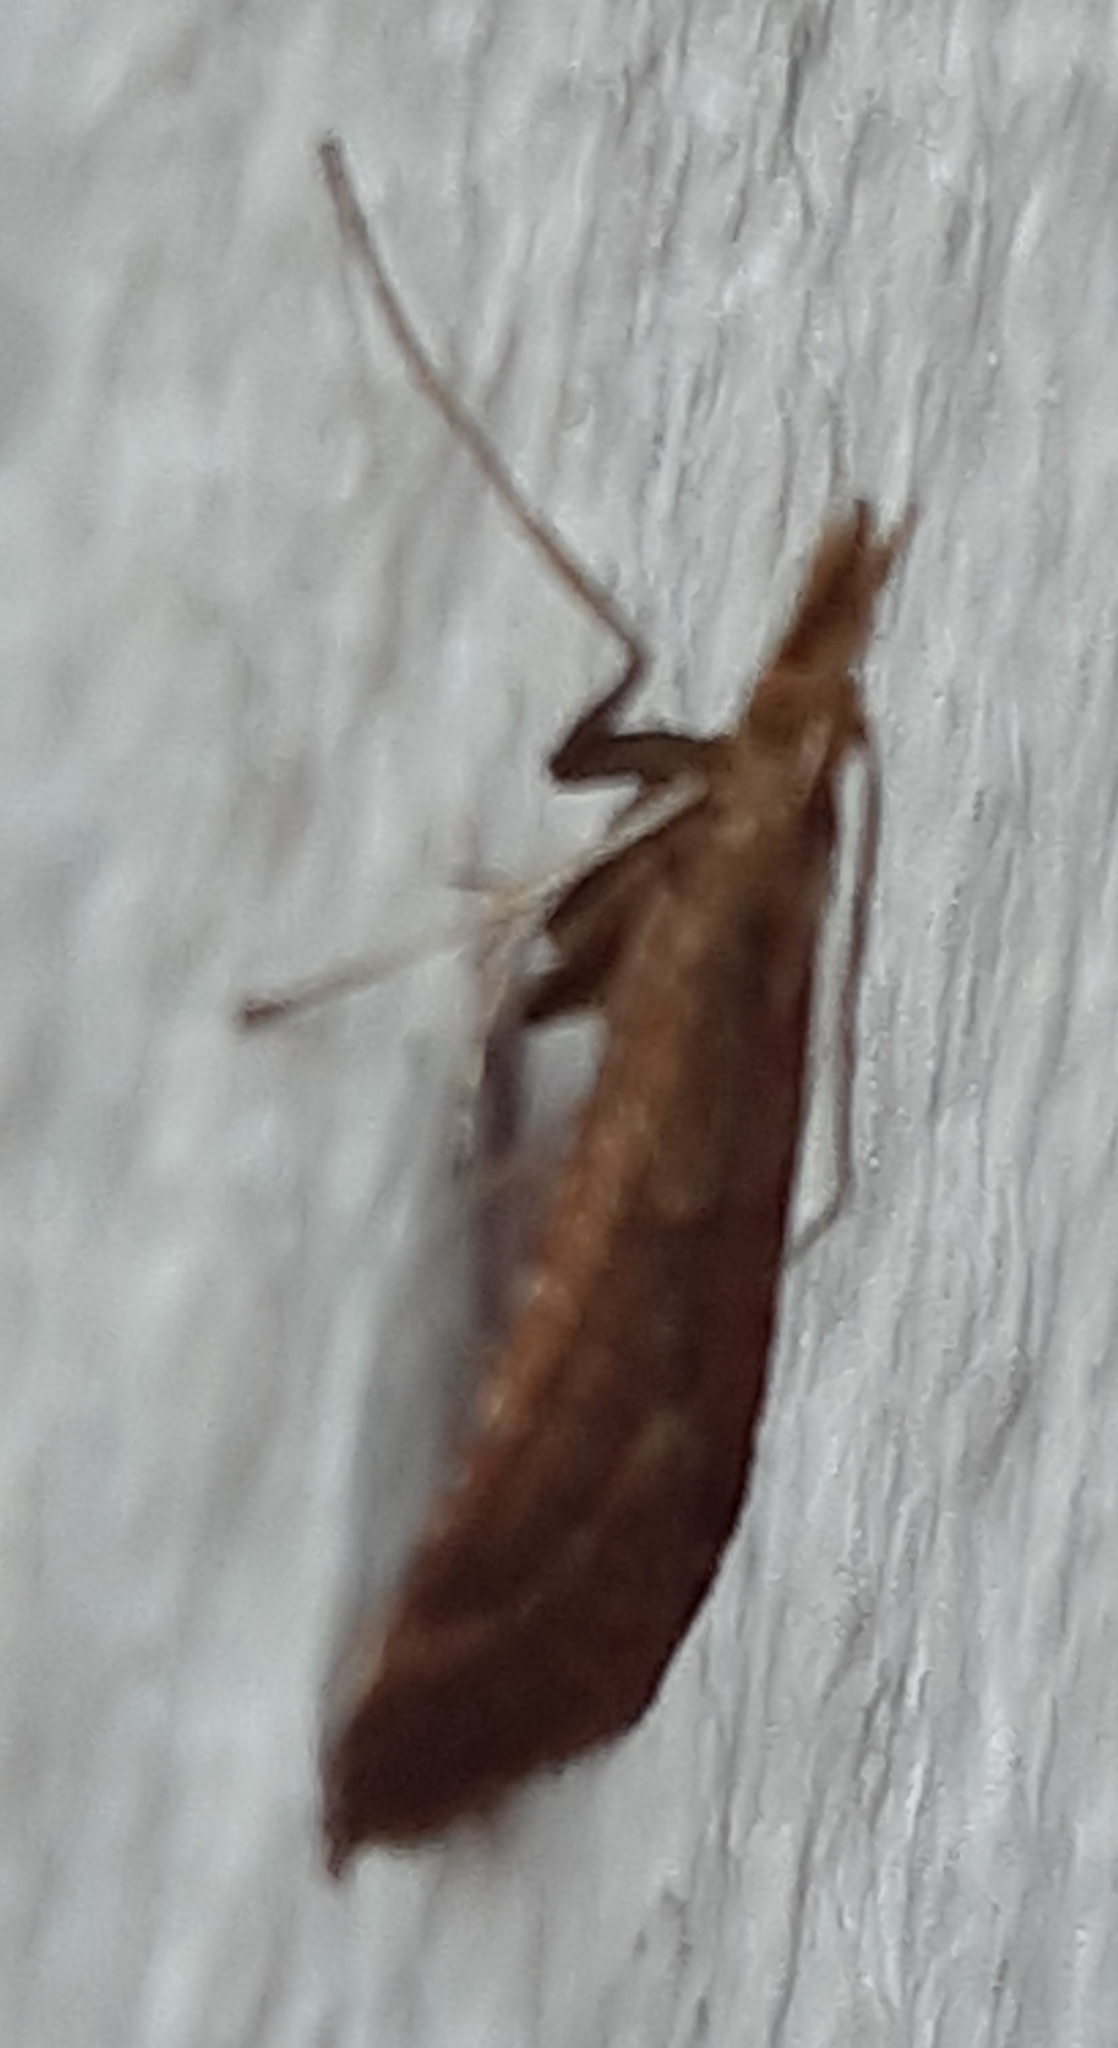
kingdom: Animalia
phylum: Arthropoda
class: Insecta
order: Lepidoptera
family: Pyralidae
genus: Synaphe
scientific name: Synaphe punctalis
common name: Long-legged tabby
